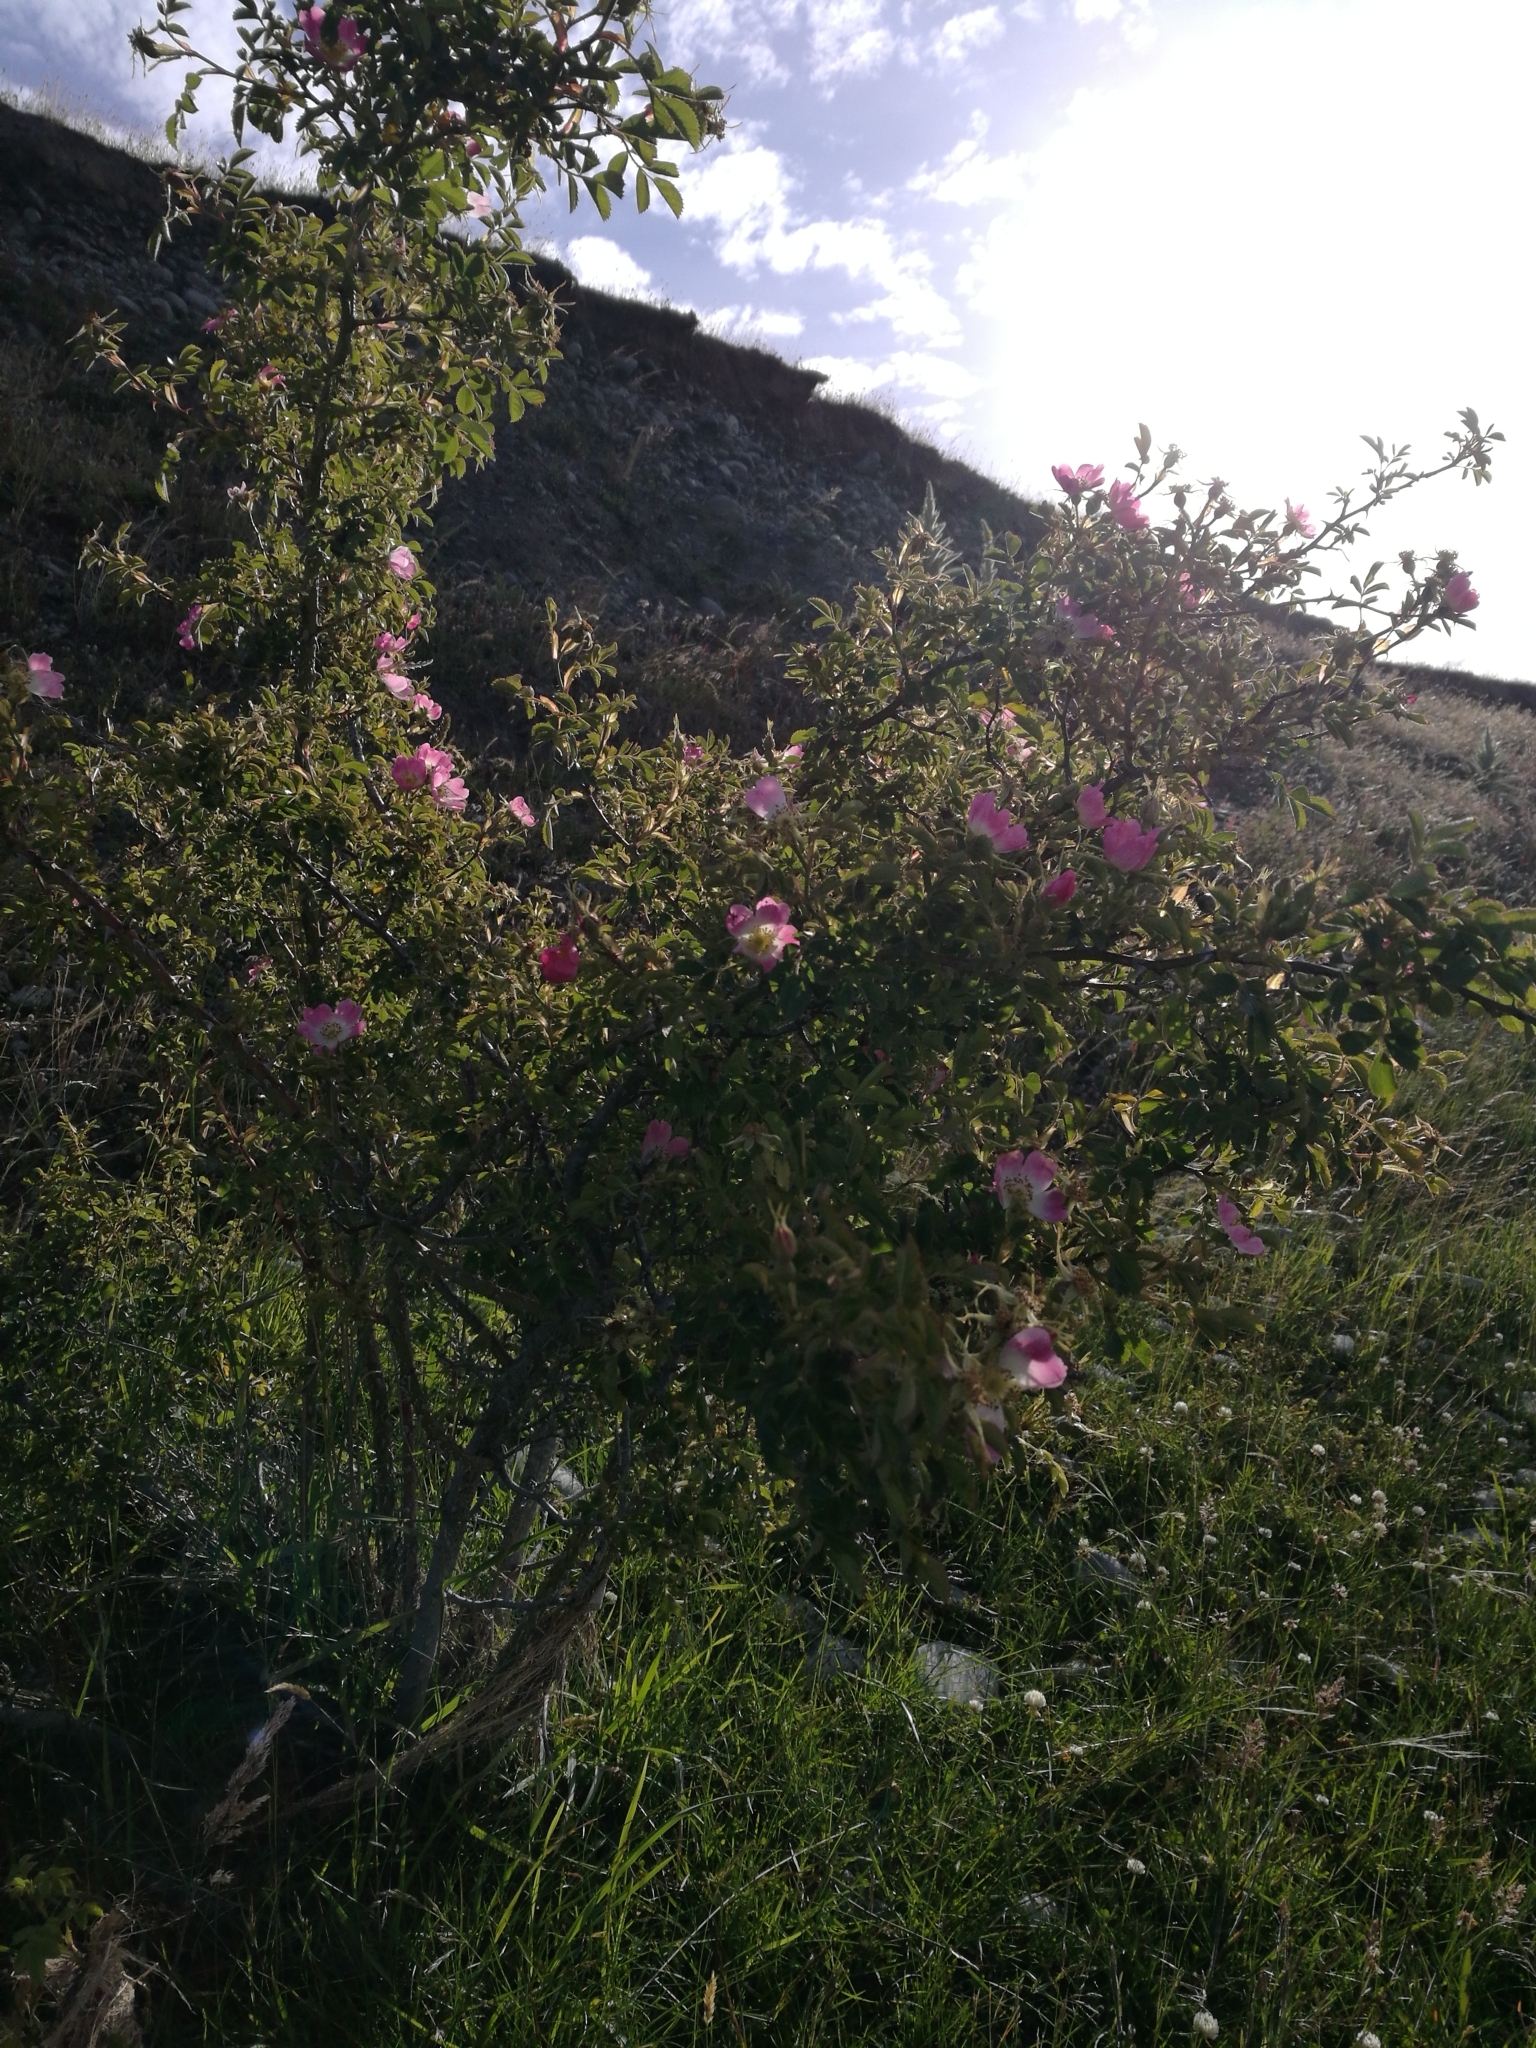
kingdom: Plantae
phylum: Tracheophyta
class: Magnoliopsida
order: Rosales
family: Rosaceae
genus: Rosa
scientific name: Rosa rubiginosa
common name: Sweet-briar
